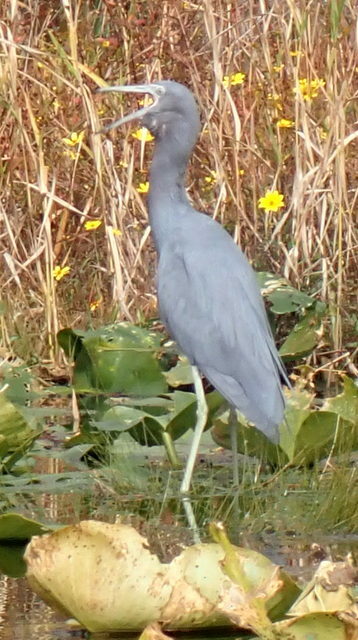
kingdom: Animalia
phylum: Chordata
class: Aves
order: Pelecaniformes
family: Ardeidae
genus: Egretta
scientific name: Egretta caerulea
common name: Little blue heron
